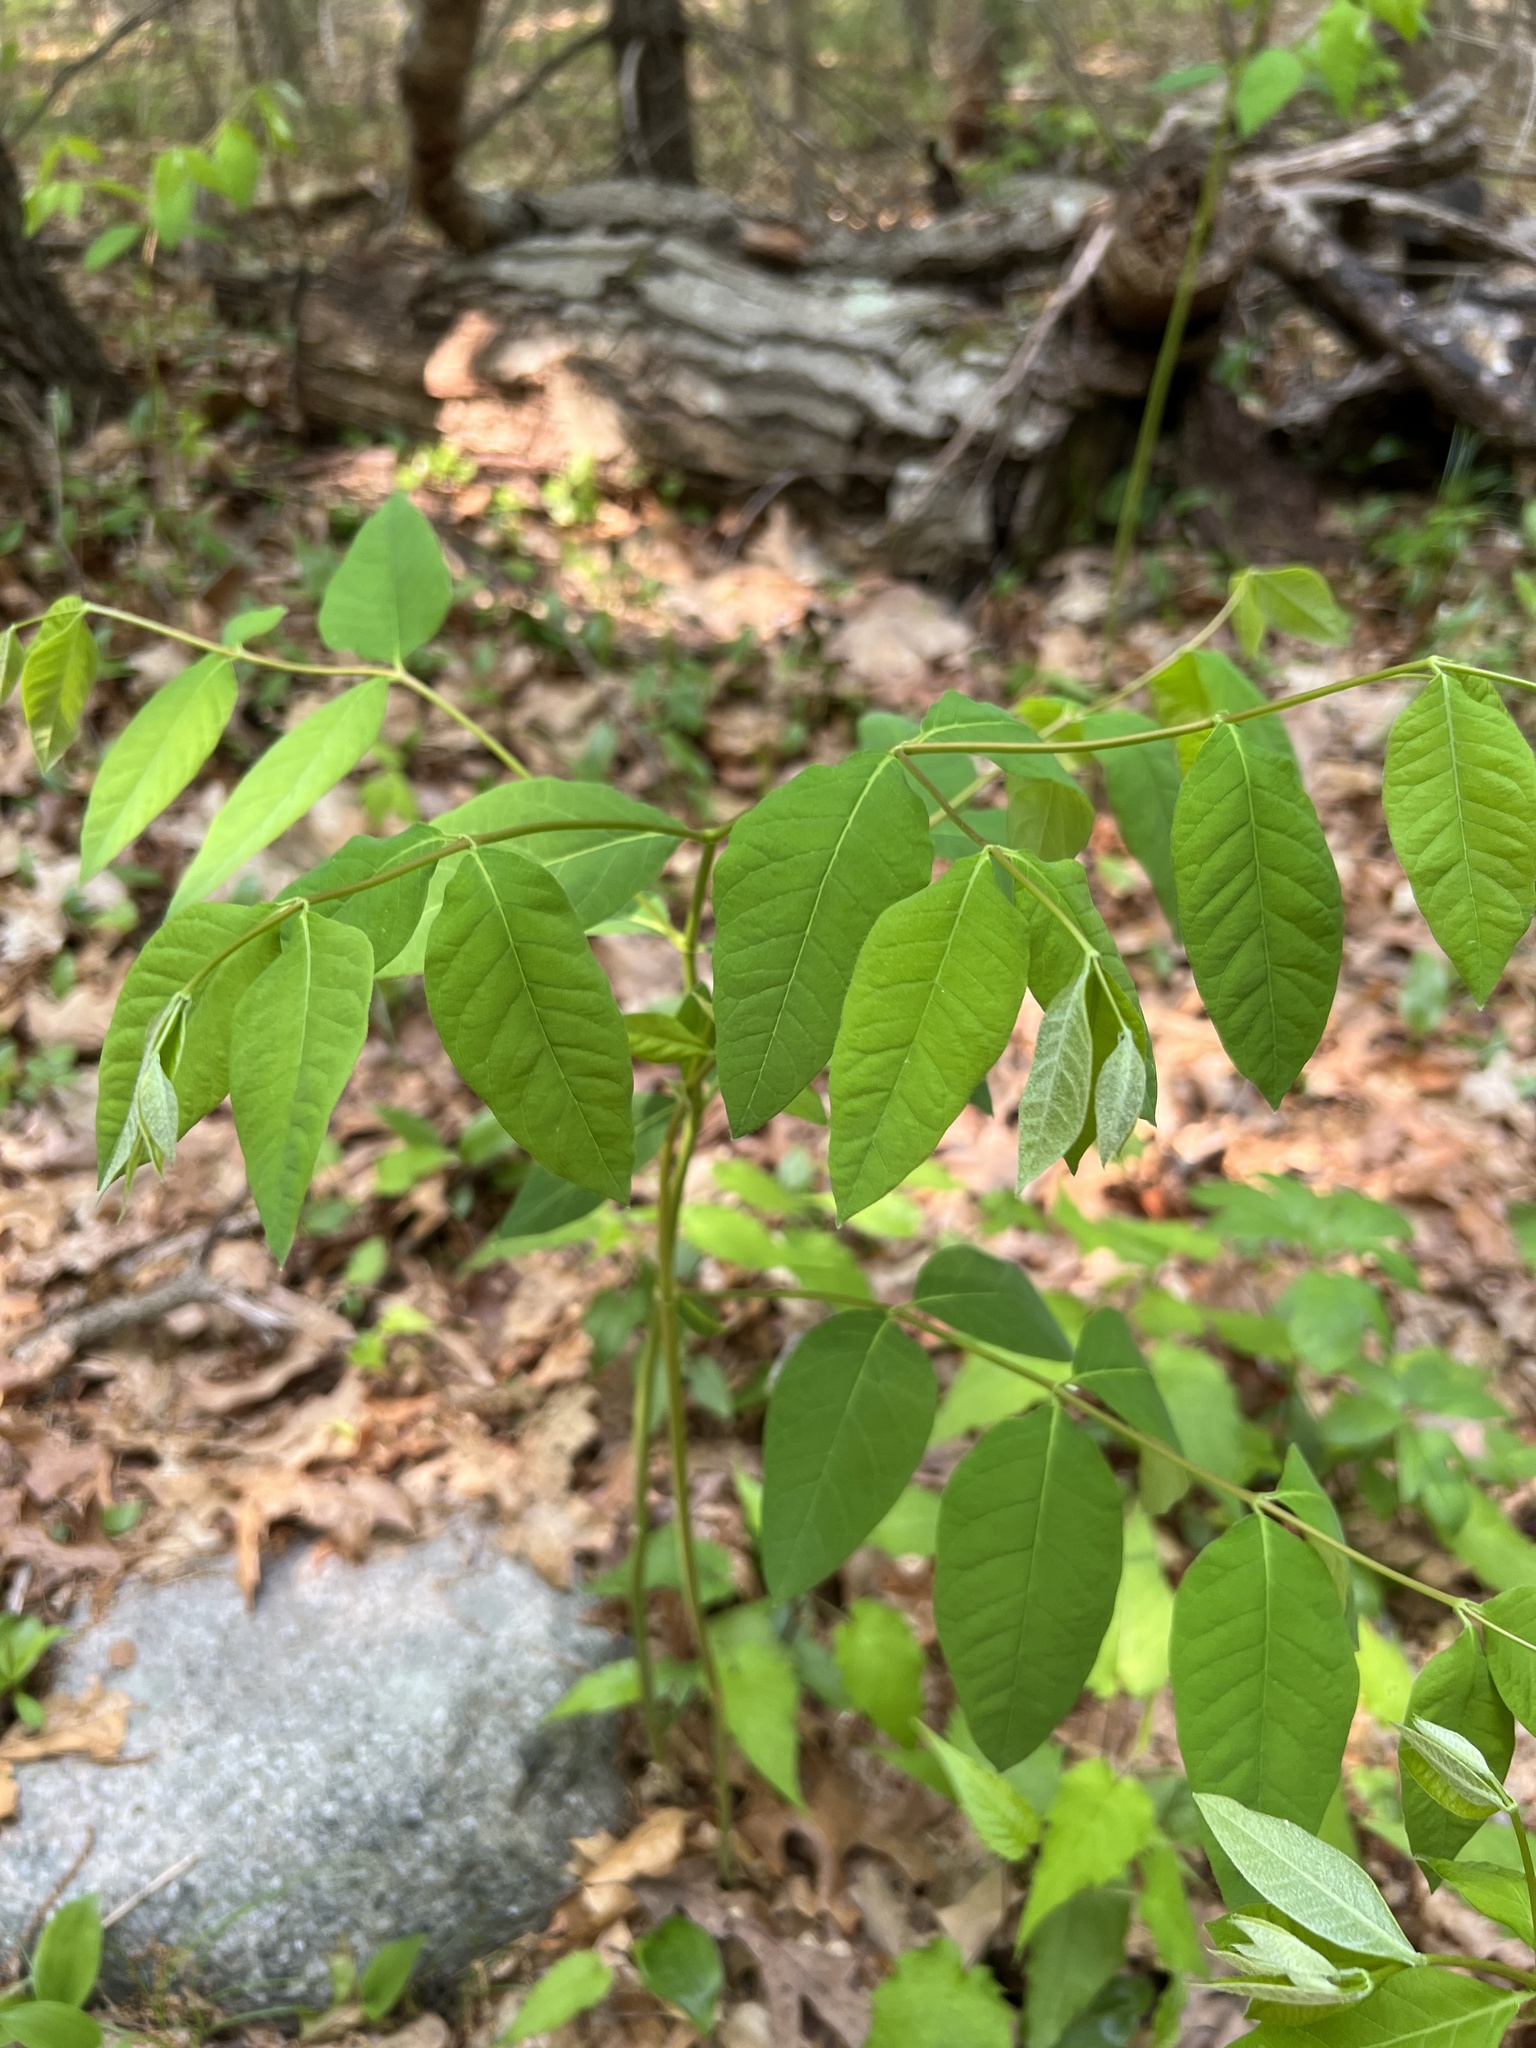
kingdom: Plantae
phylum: Tracheophyta
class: Magnoliopsida
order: Gentianales
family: Apocynaceae
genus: Apocynum
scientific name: Apocynum androsaemifolium
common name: Spreading dogbane
